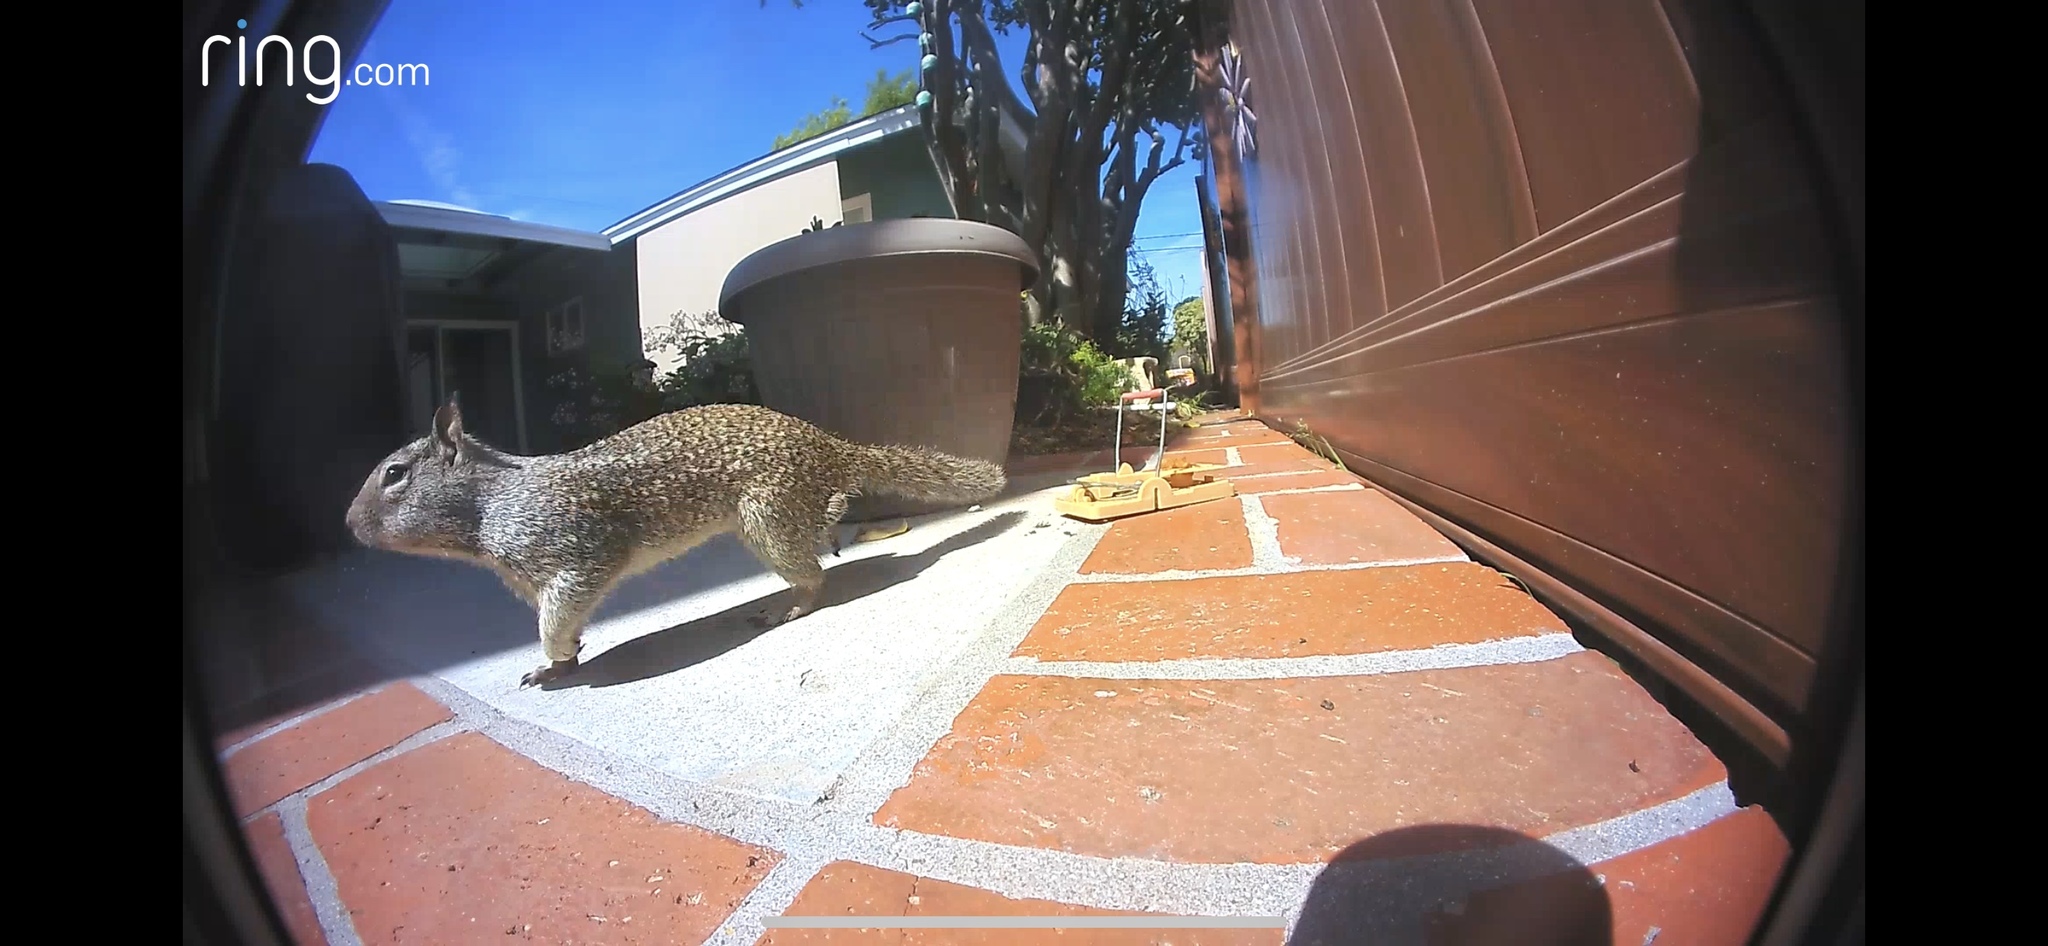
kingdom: Animalia
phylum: Chordata
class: Mammalia
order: Rodentia
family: Sciuridae
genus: Otospermophilus
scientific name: Otospermophilus beecheyi
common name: California ground squirrel
